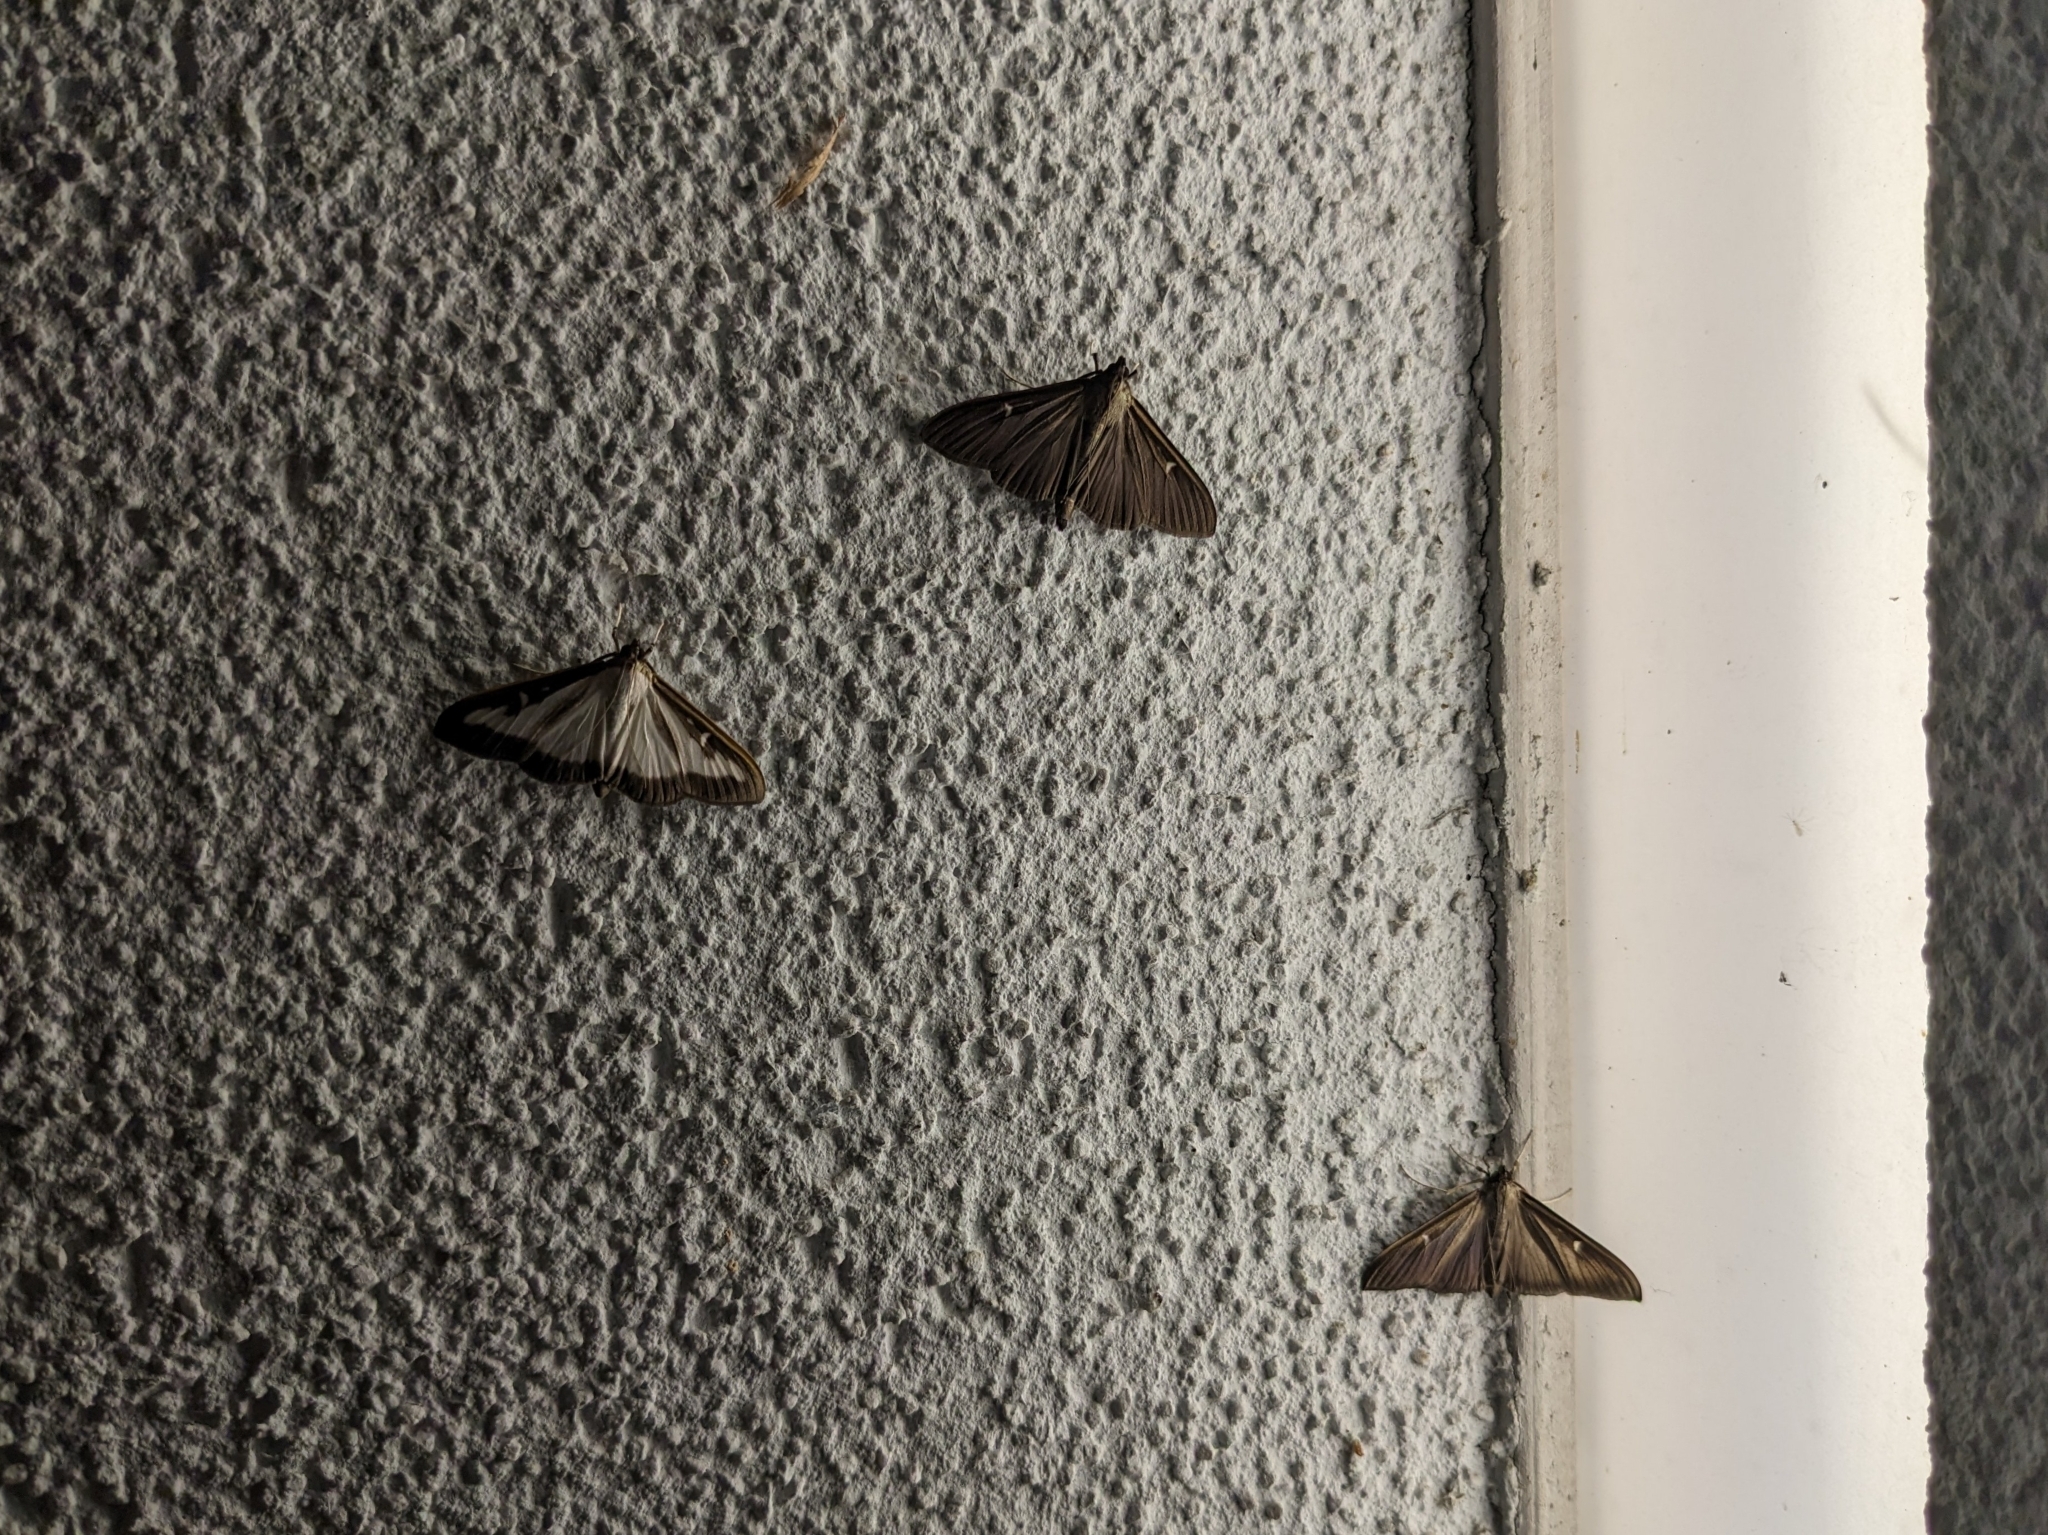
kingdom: Animalia
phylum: Arthropoda
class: Insecta
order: Lepidoptera
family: Crambidae
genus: Cydalima
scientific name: Cydalima perspectalis
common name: Box tree moth
